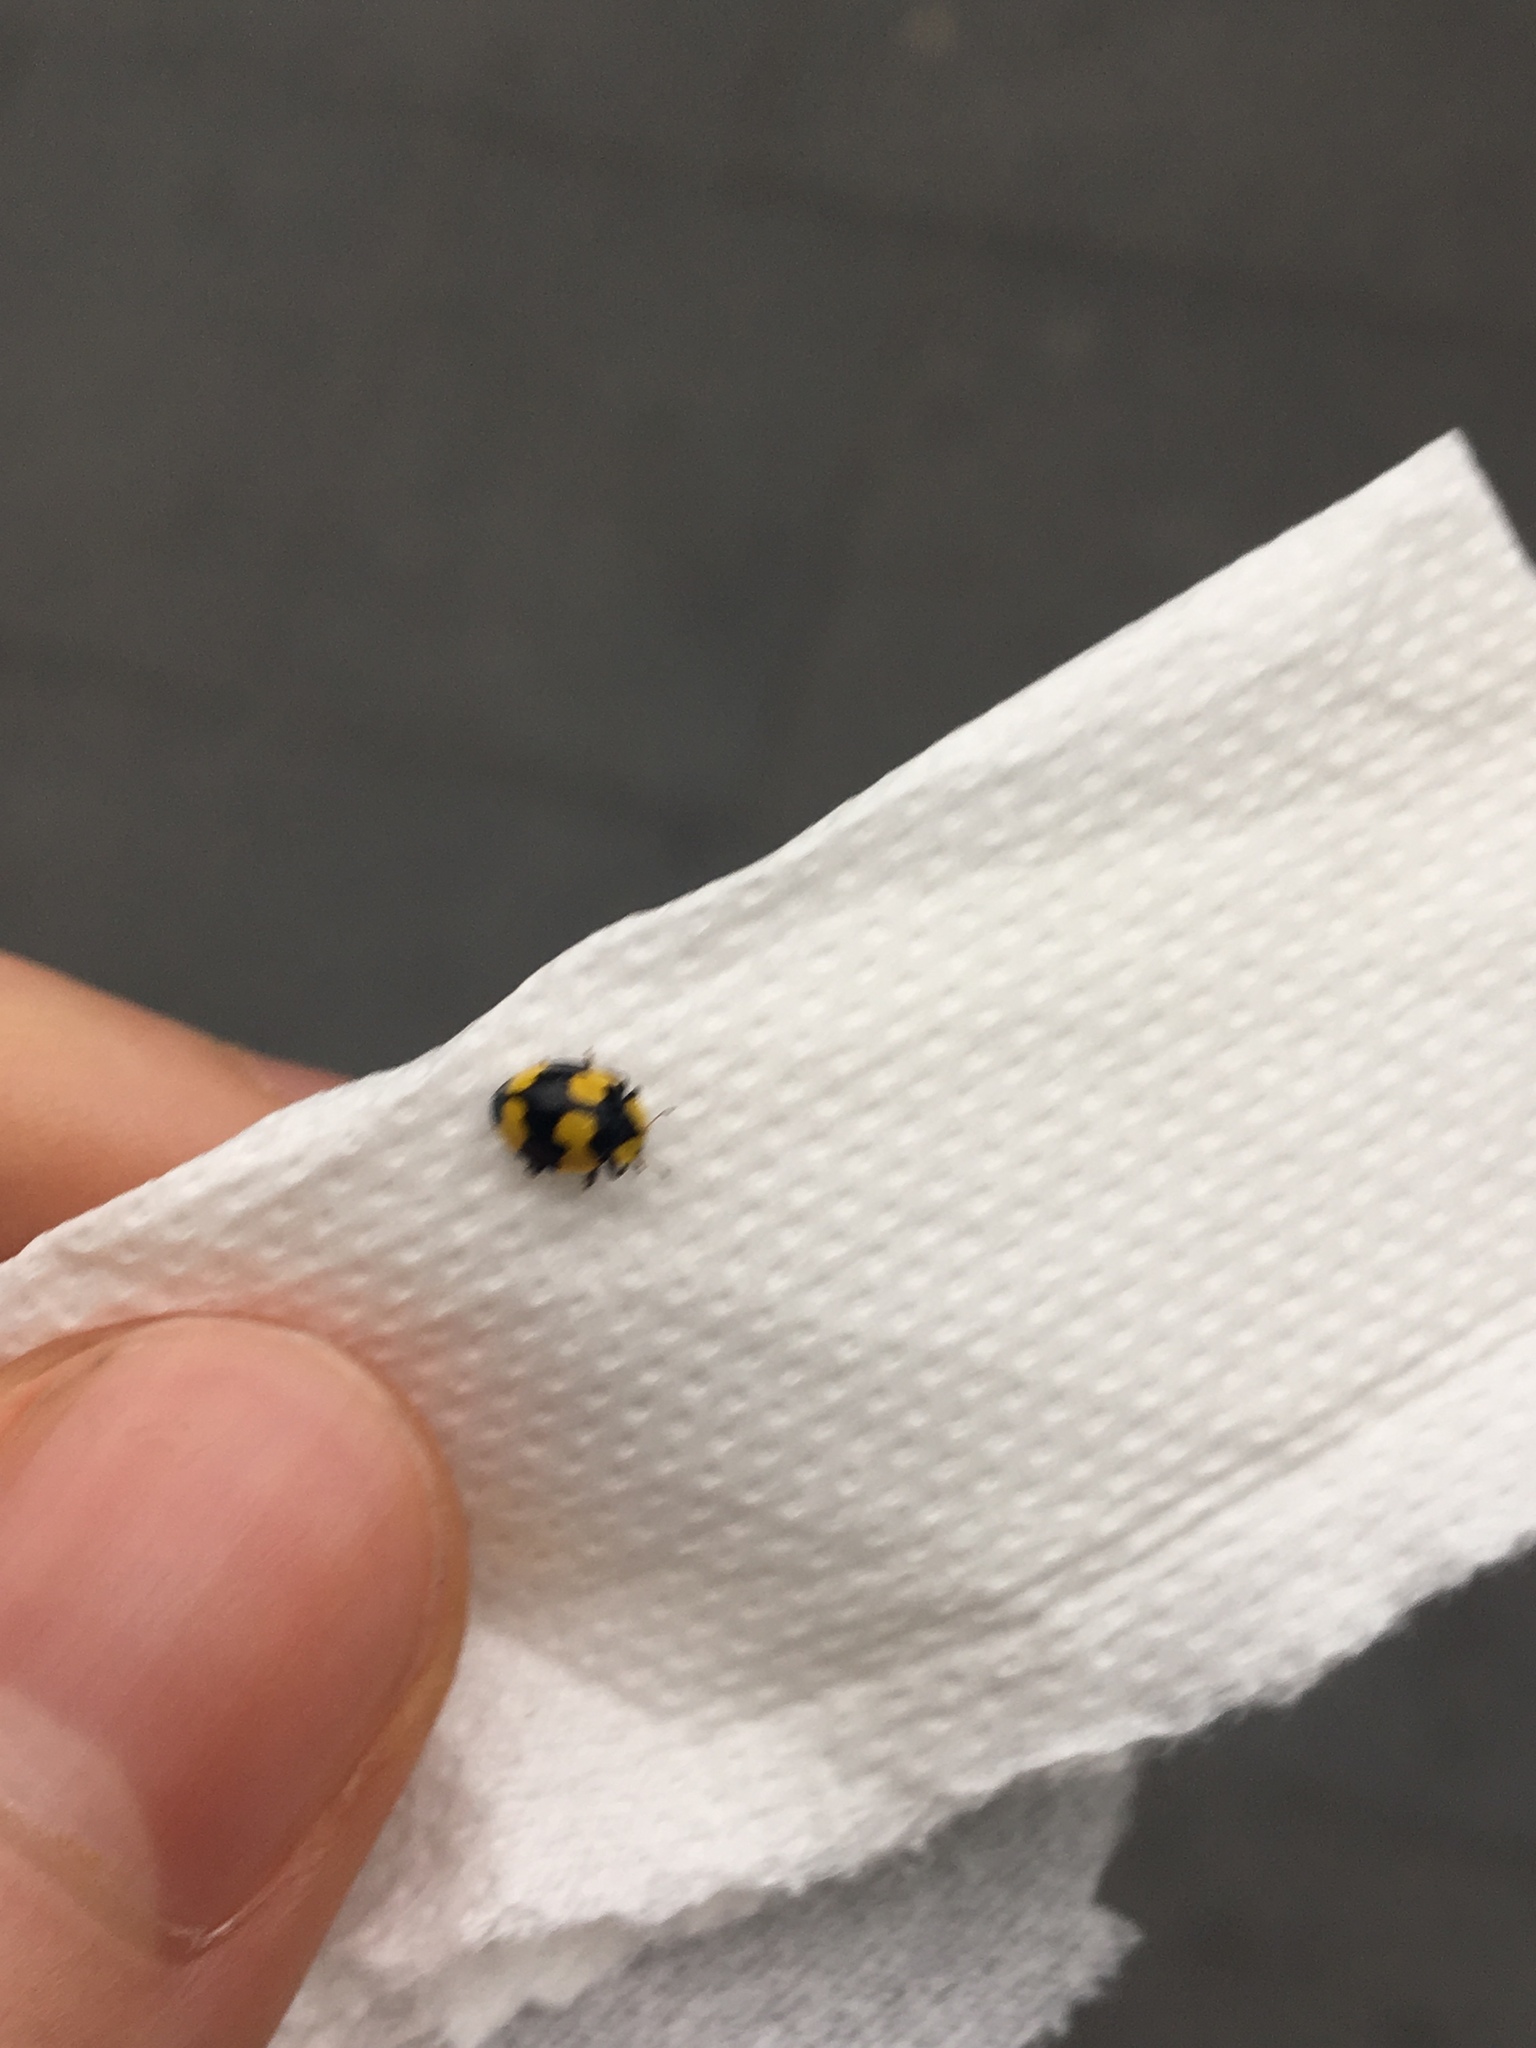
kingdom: Animalia
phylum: Arthropoda
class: Insecta
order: Coleoptera
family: Coccinellidae
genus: Illeis
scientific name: Illeis galbula
